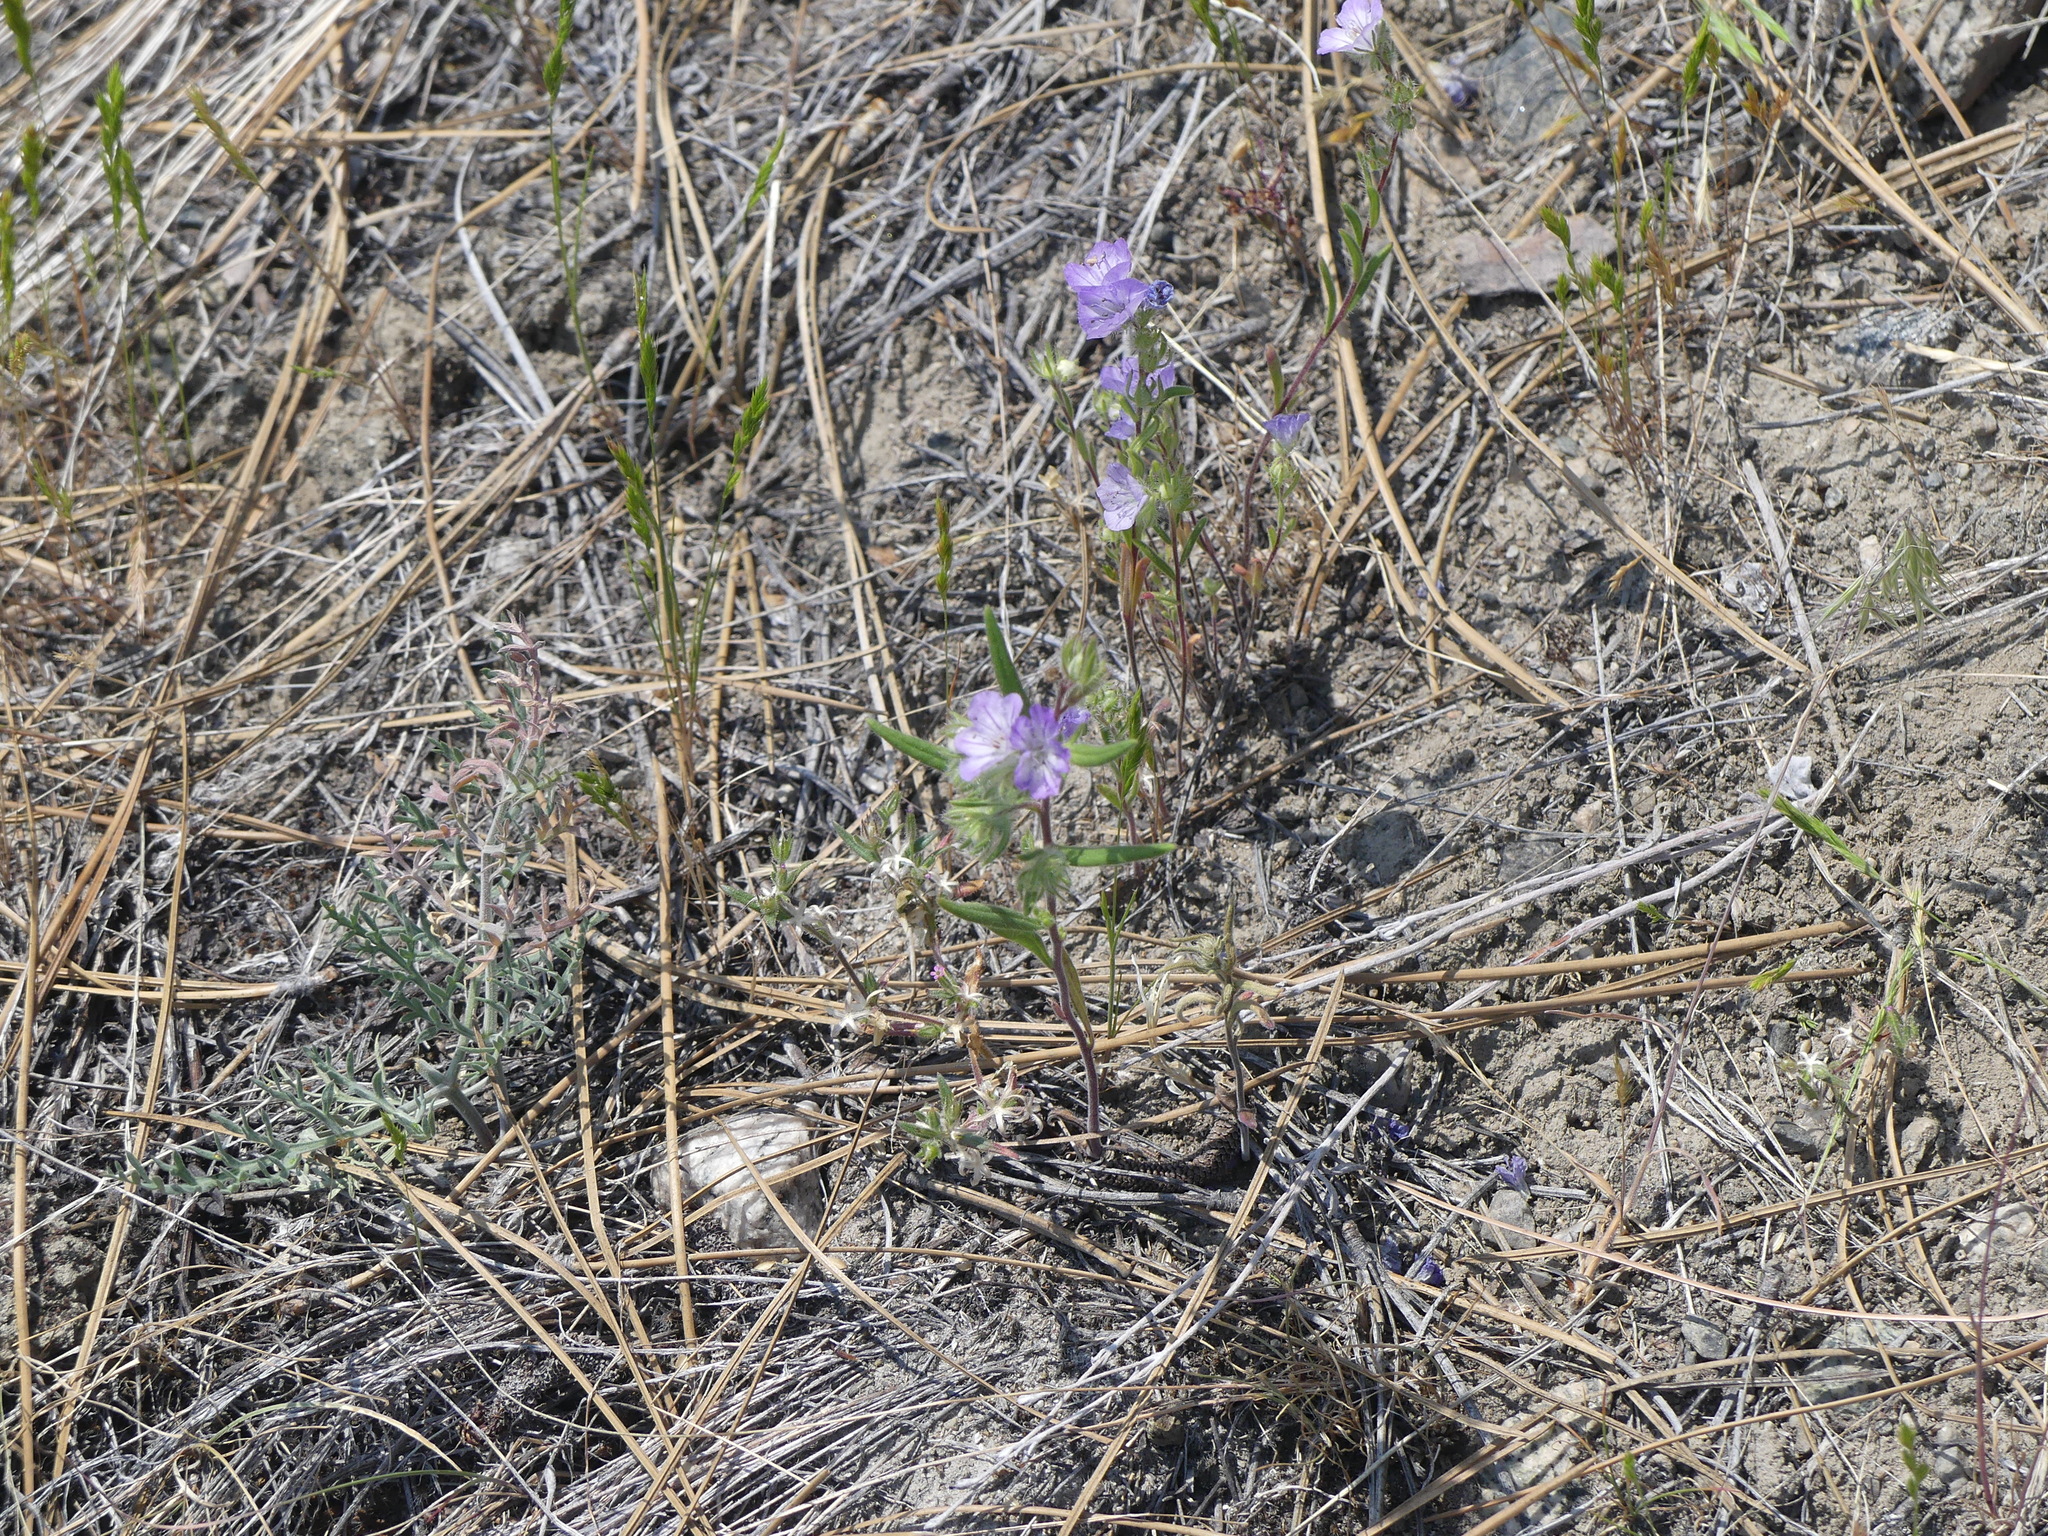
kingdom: Plantae
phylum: Tracheophyta
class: Magnoliopsida
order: Boraginales
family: Hydrophyllaceae
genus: Phacelia
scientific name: Phacelia linearis
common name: Linear-leaved phacelia
